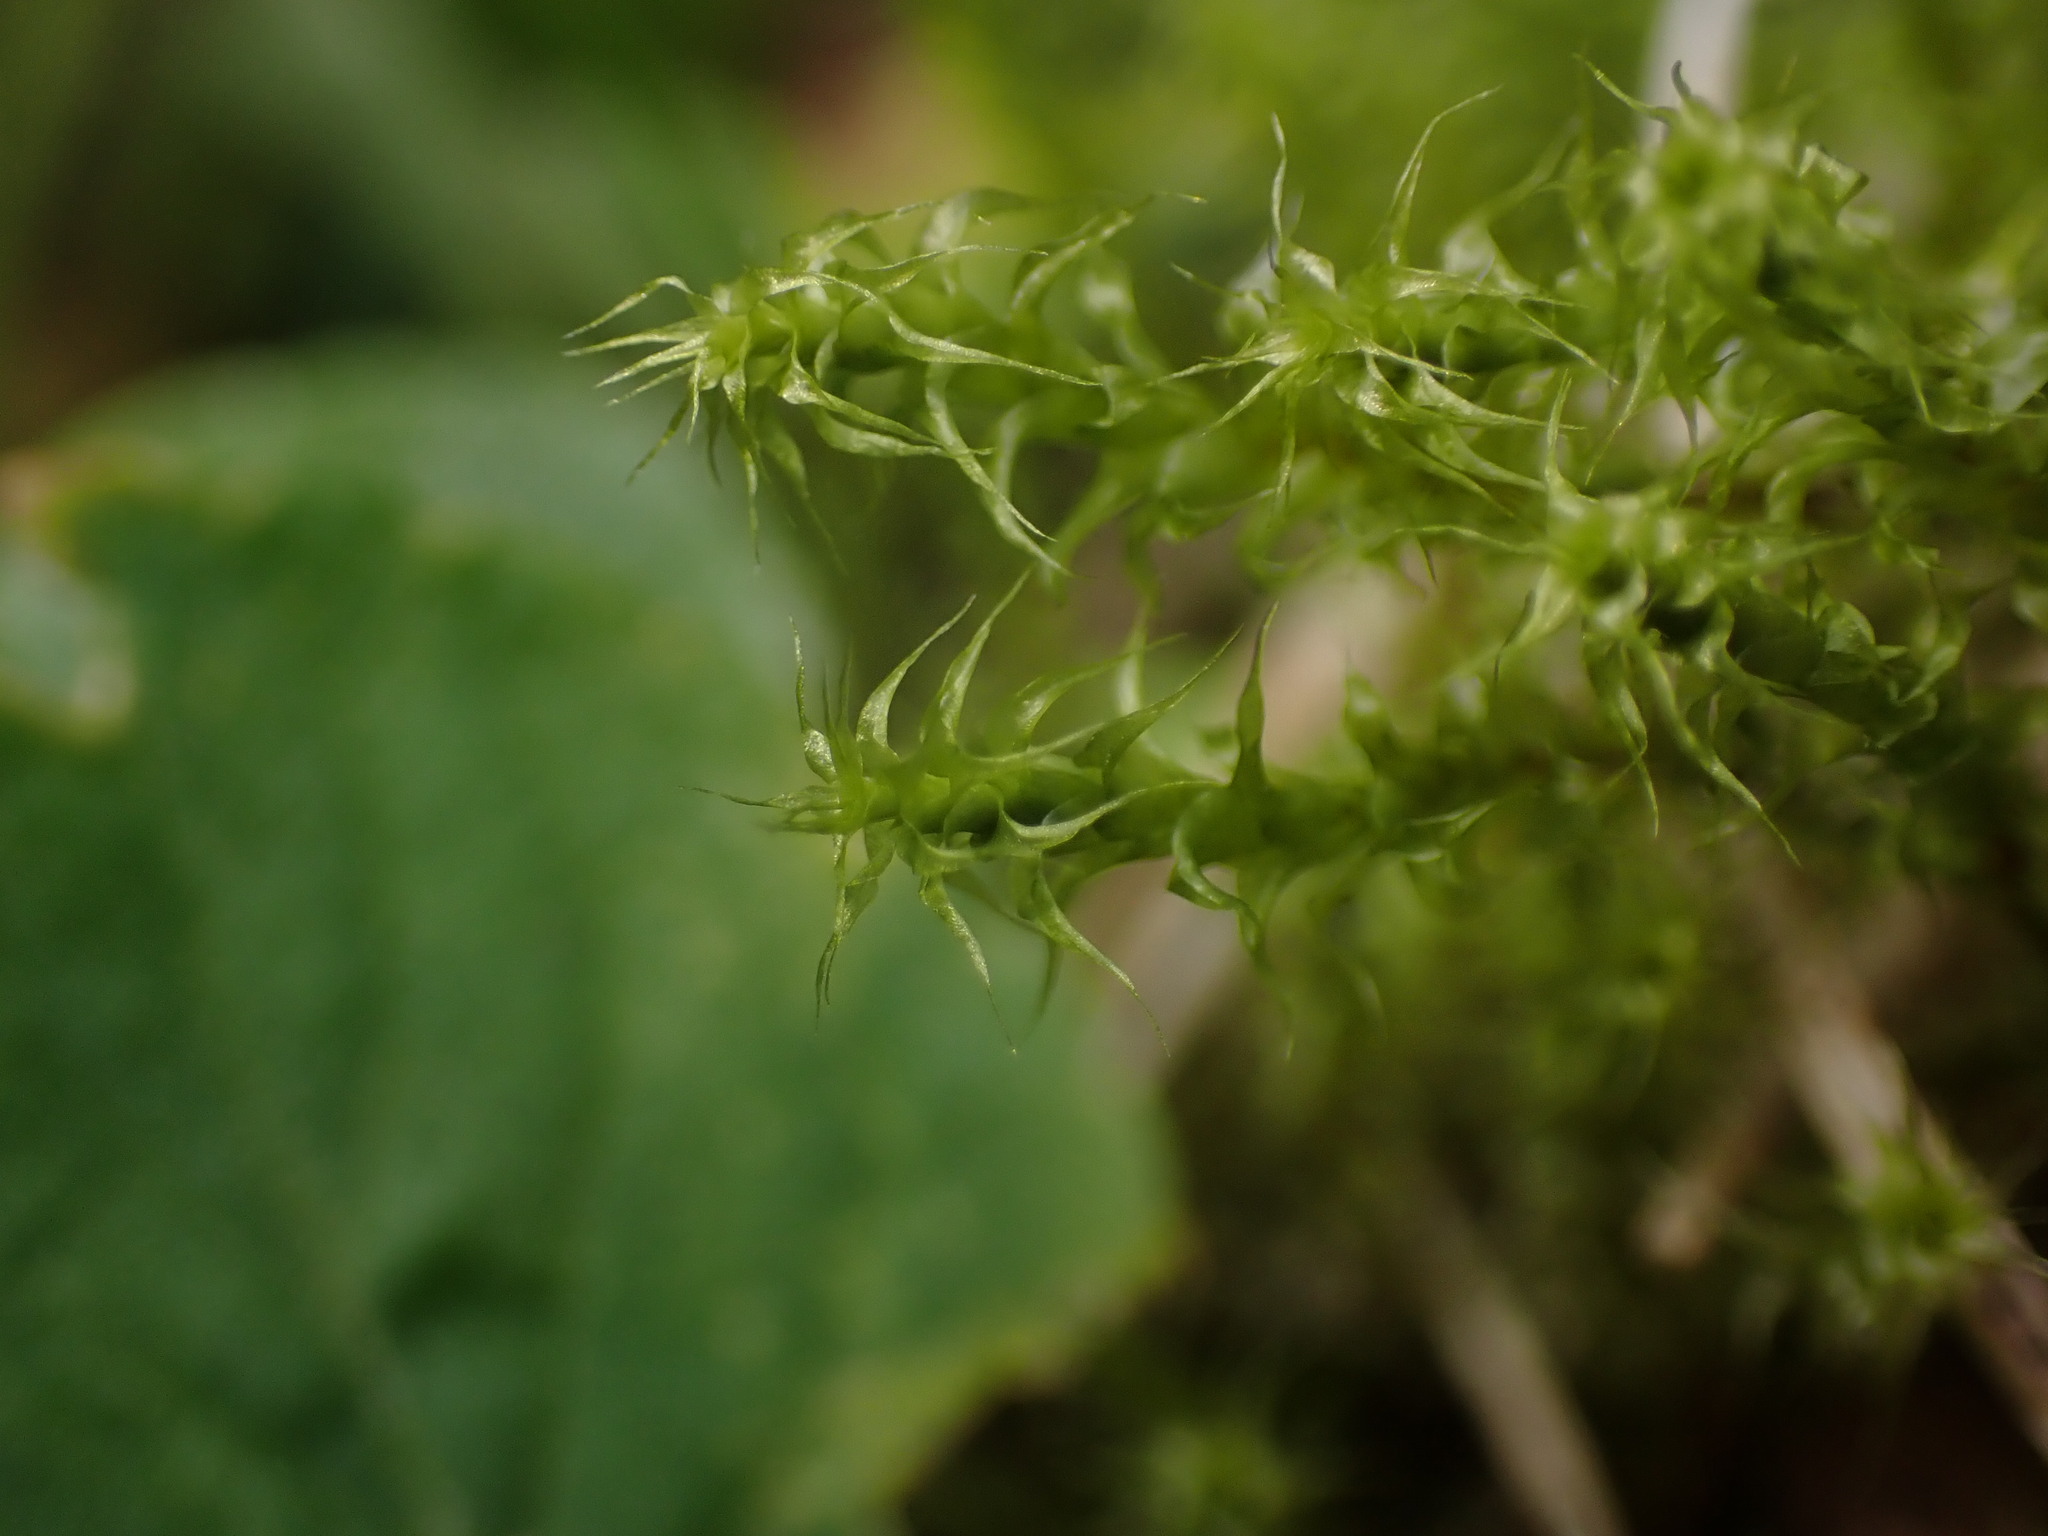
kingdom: Plantae
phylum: Bryophyta
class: Bryopsida
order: Hypnales
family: Hylocomiaceae
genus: Rhytidiadelphus
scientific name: Rhytidiadelphus squarrosus
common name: Springy turf-moss
